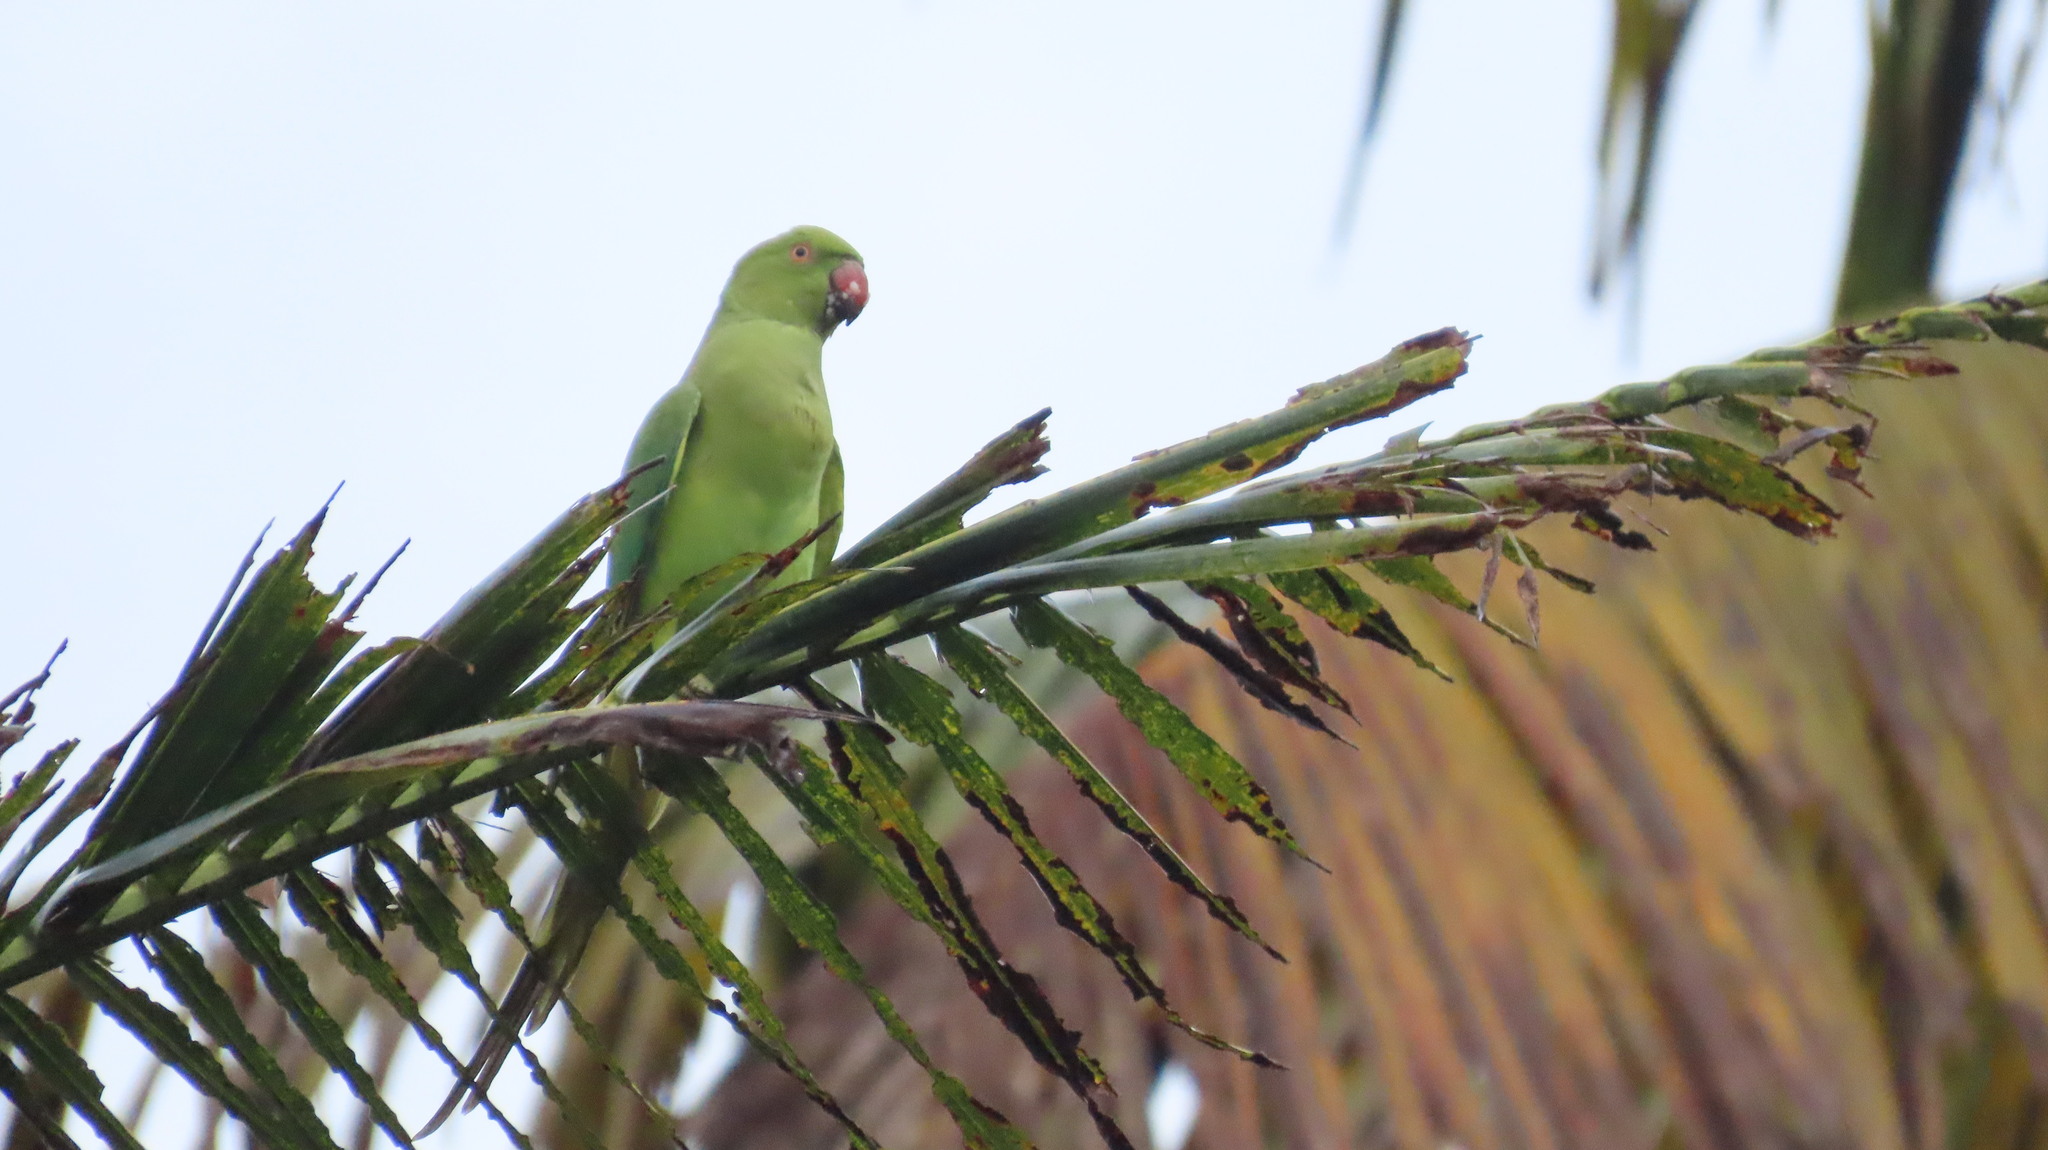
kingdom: Animalia
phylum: Chordata
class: Aves
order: Psittaciformes
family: Psittacidae
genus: Psittacula
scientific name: Psittacula krameri
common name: Rose-ringed parakeet
